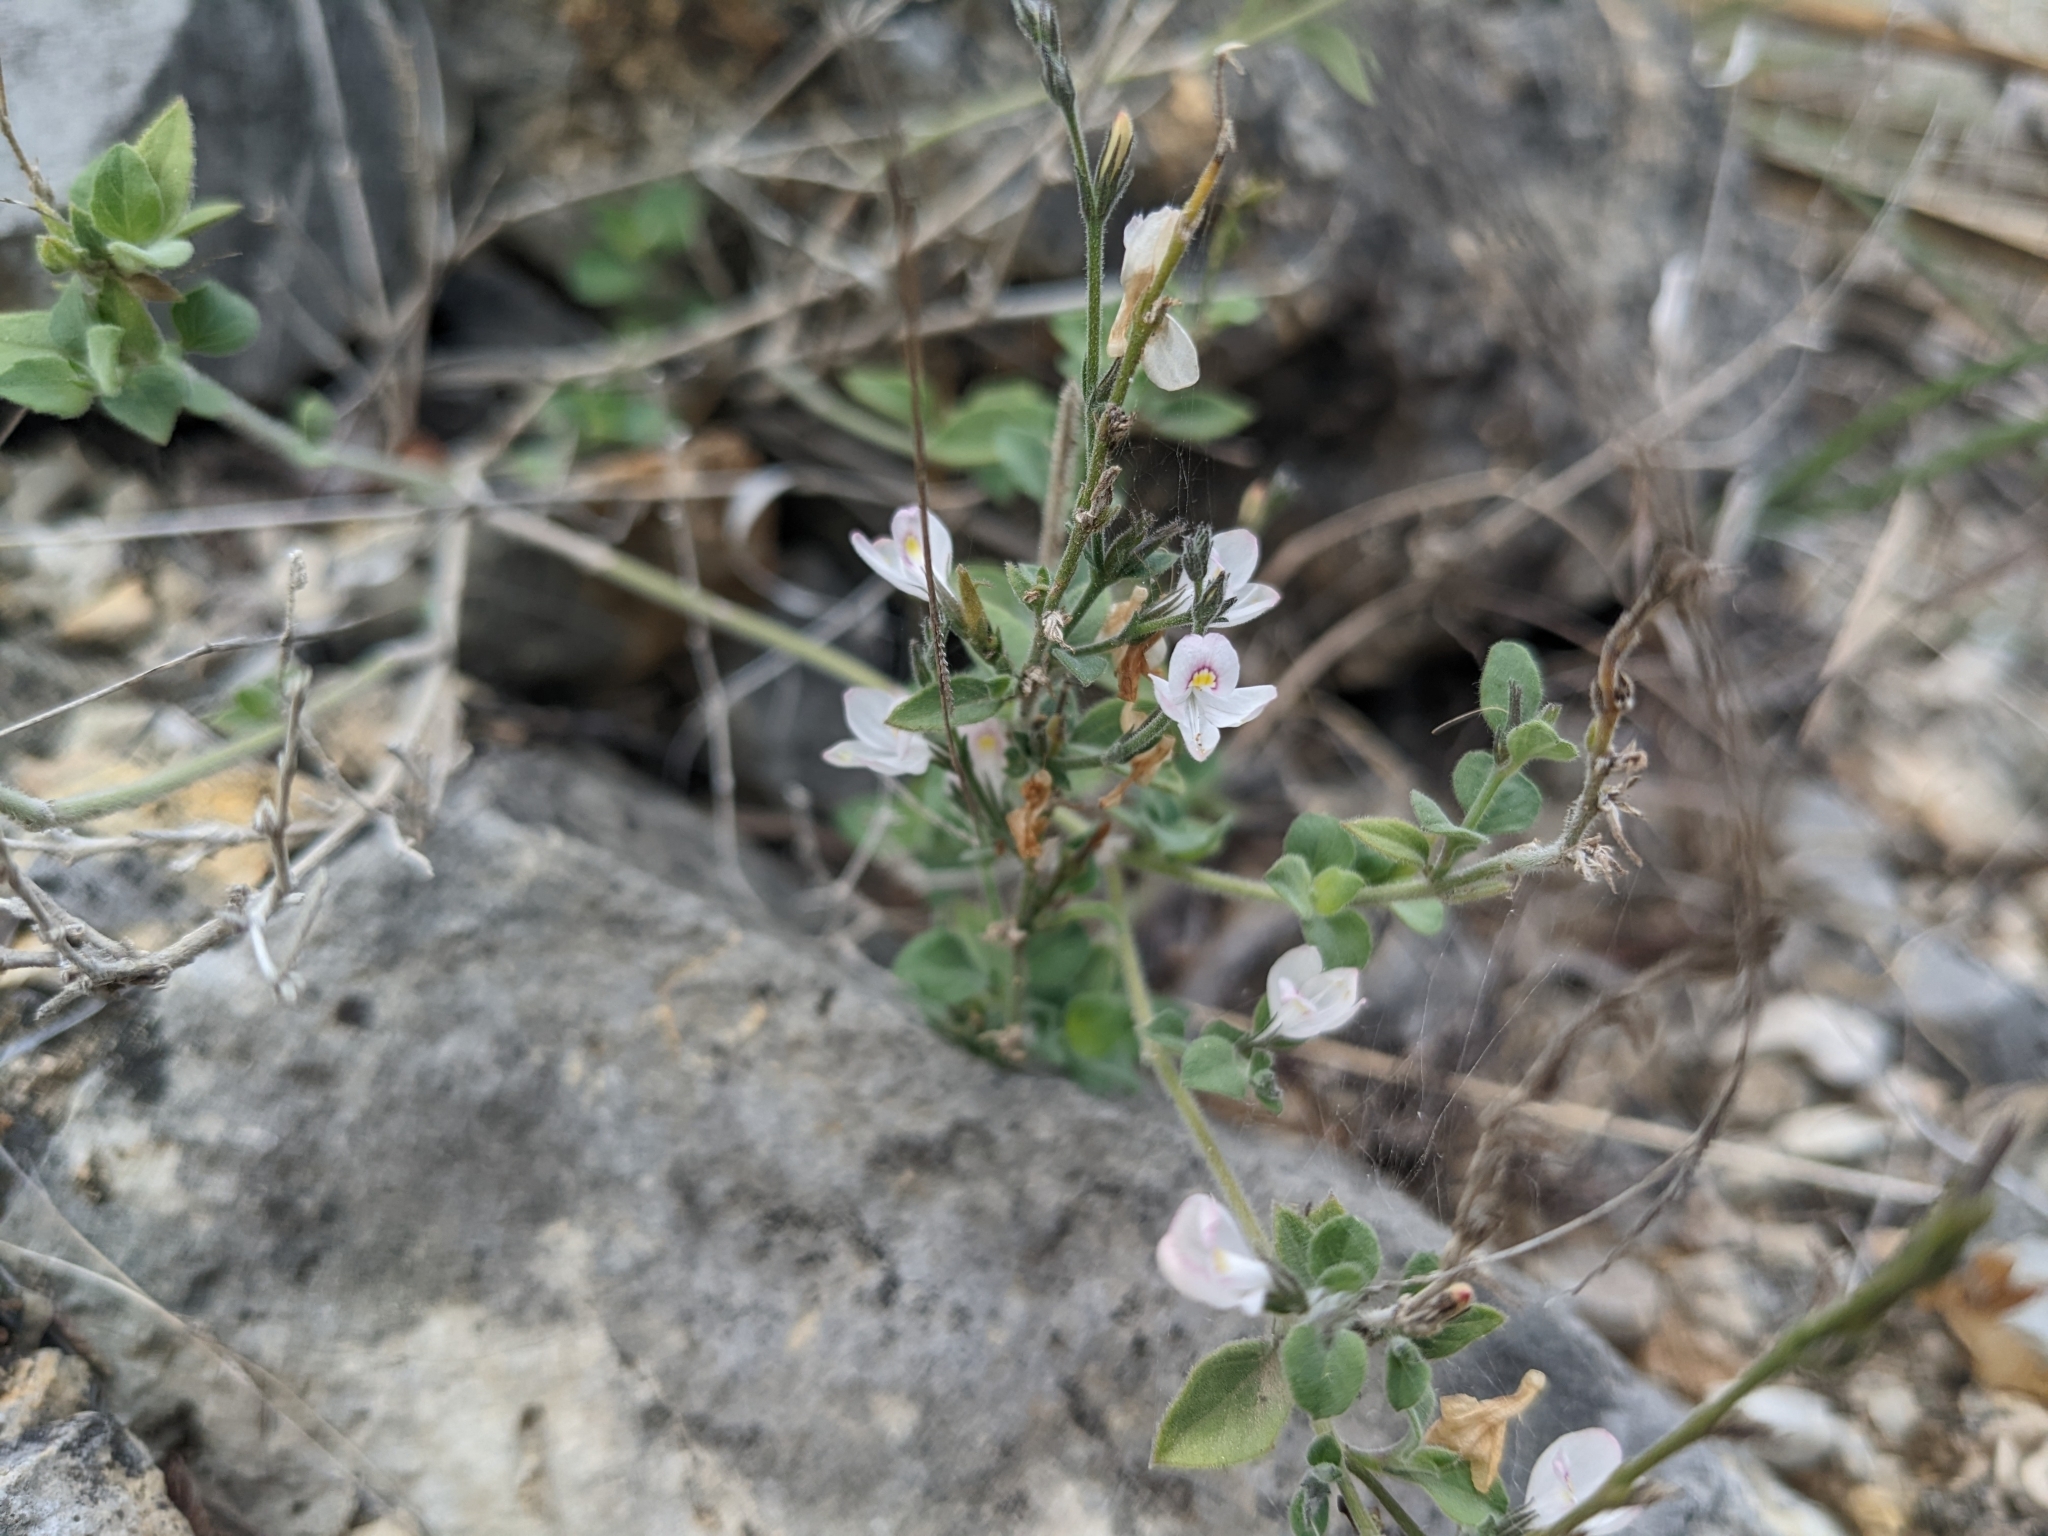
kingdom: Plantae
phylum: Tracheophyta
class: Magnoliopsida
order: Lamiales
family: Acanthaceae
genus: Carlowrightia
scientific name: Carlowrightia torreyana
